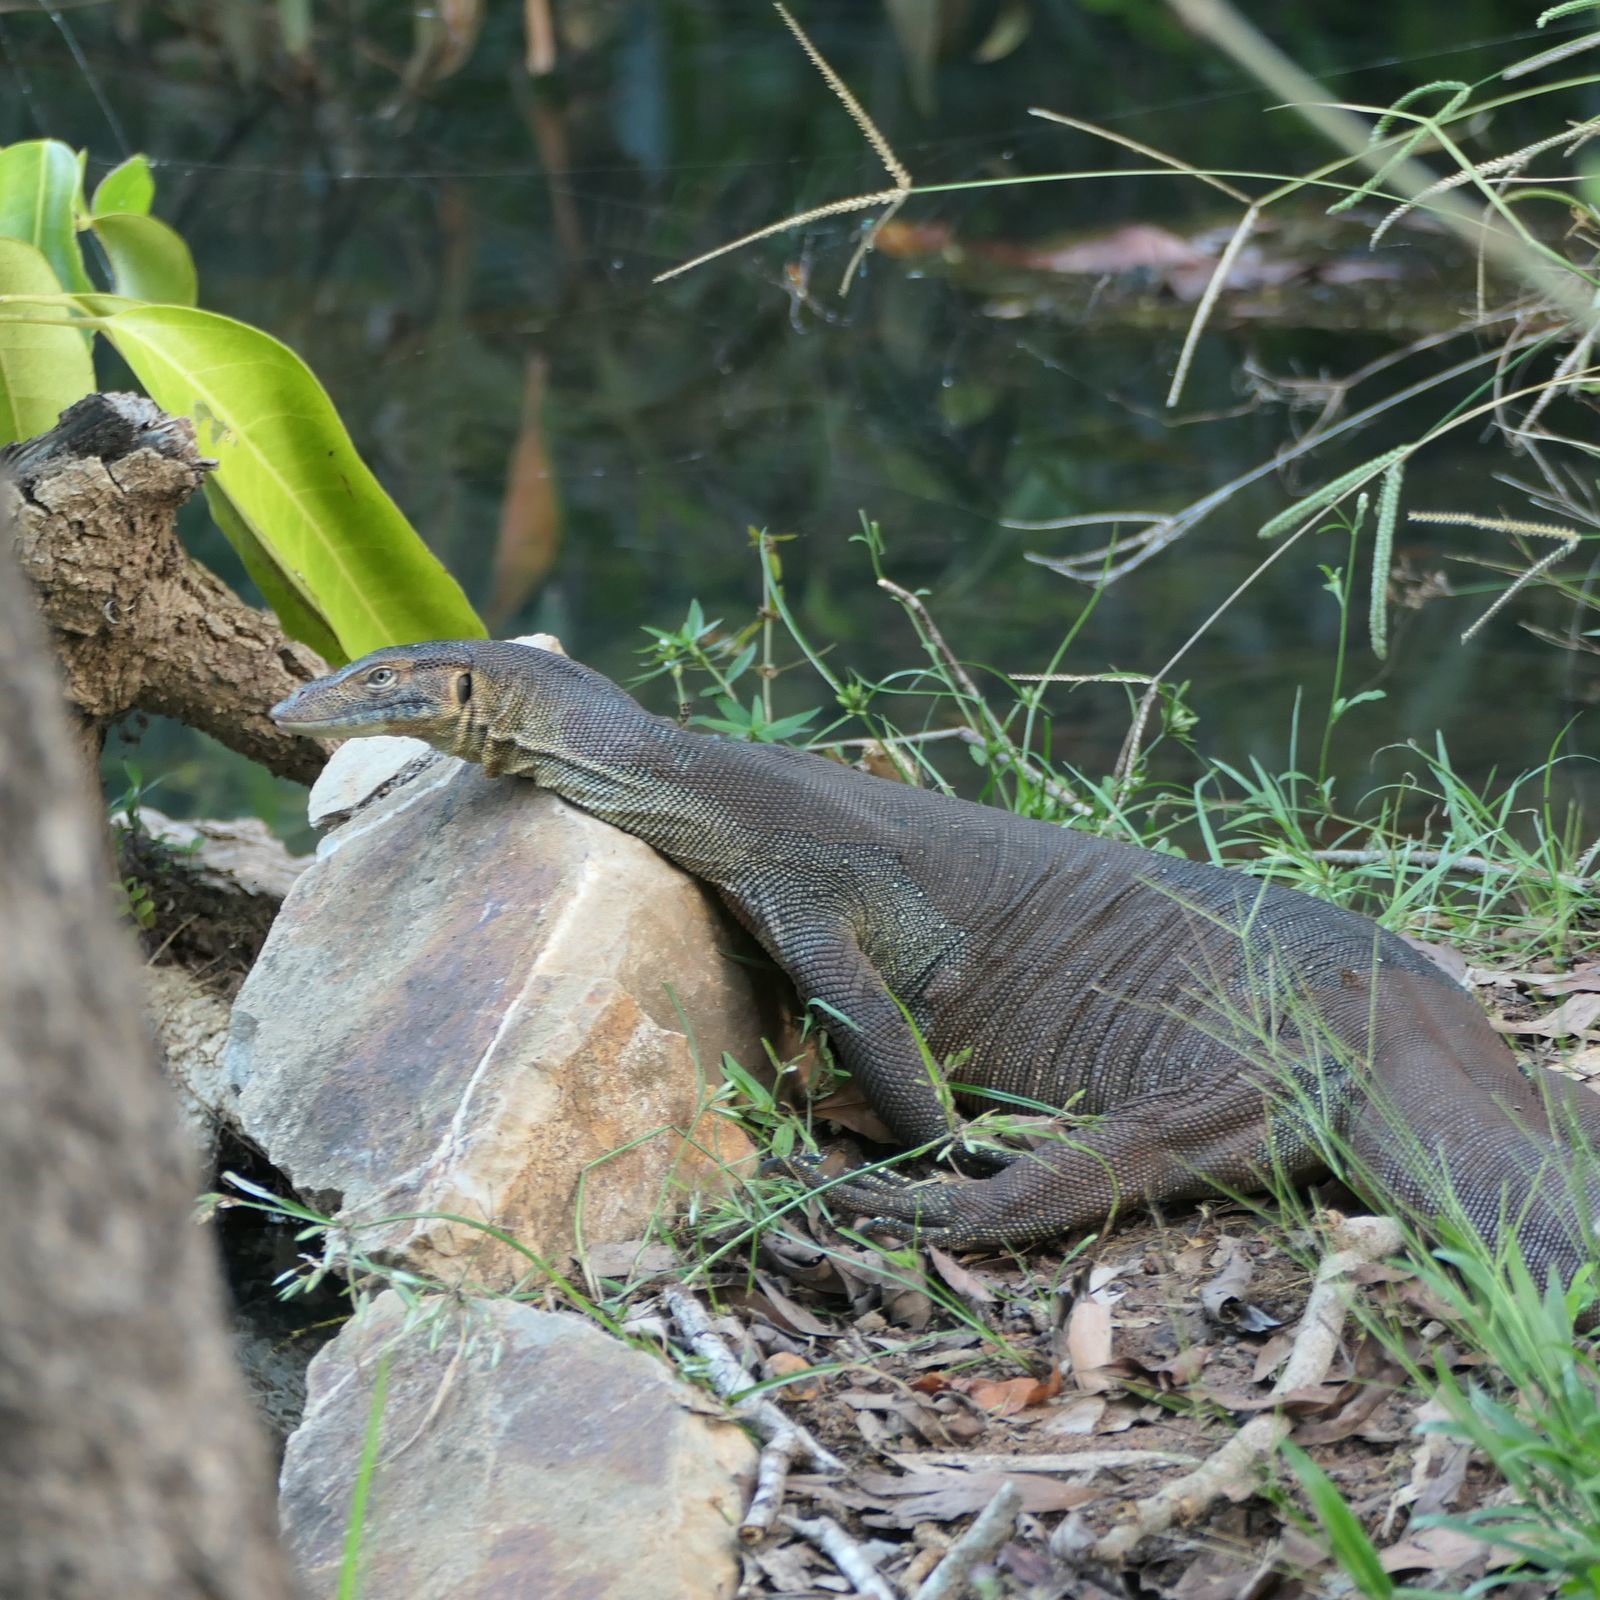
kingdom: Animalia
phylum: Chordata
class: Squamata
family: Varanidae
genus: Varanus
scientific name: Varanus mertensi
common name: Mertens's water monitor
